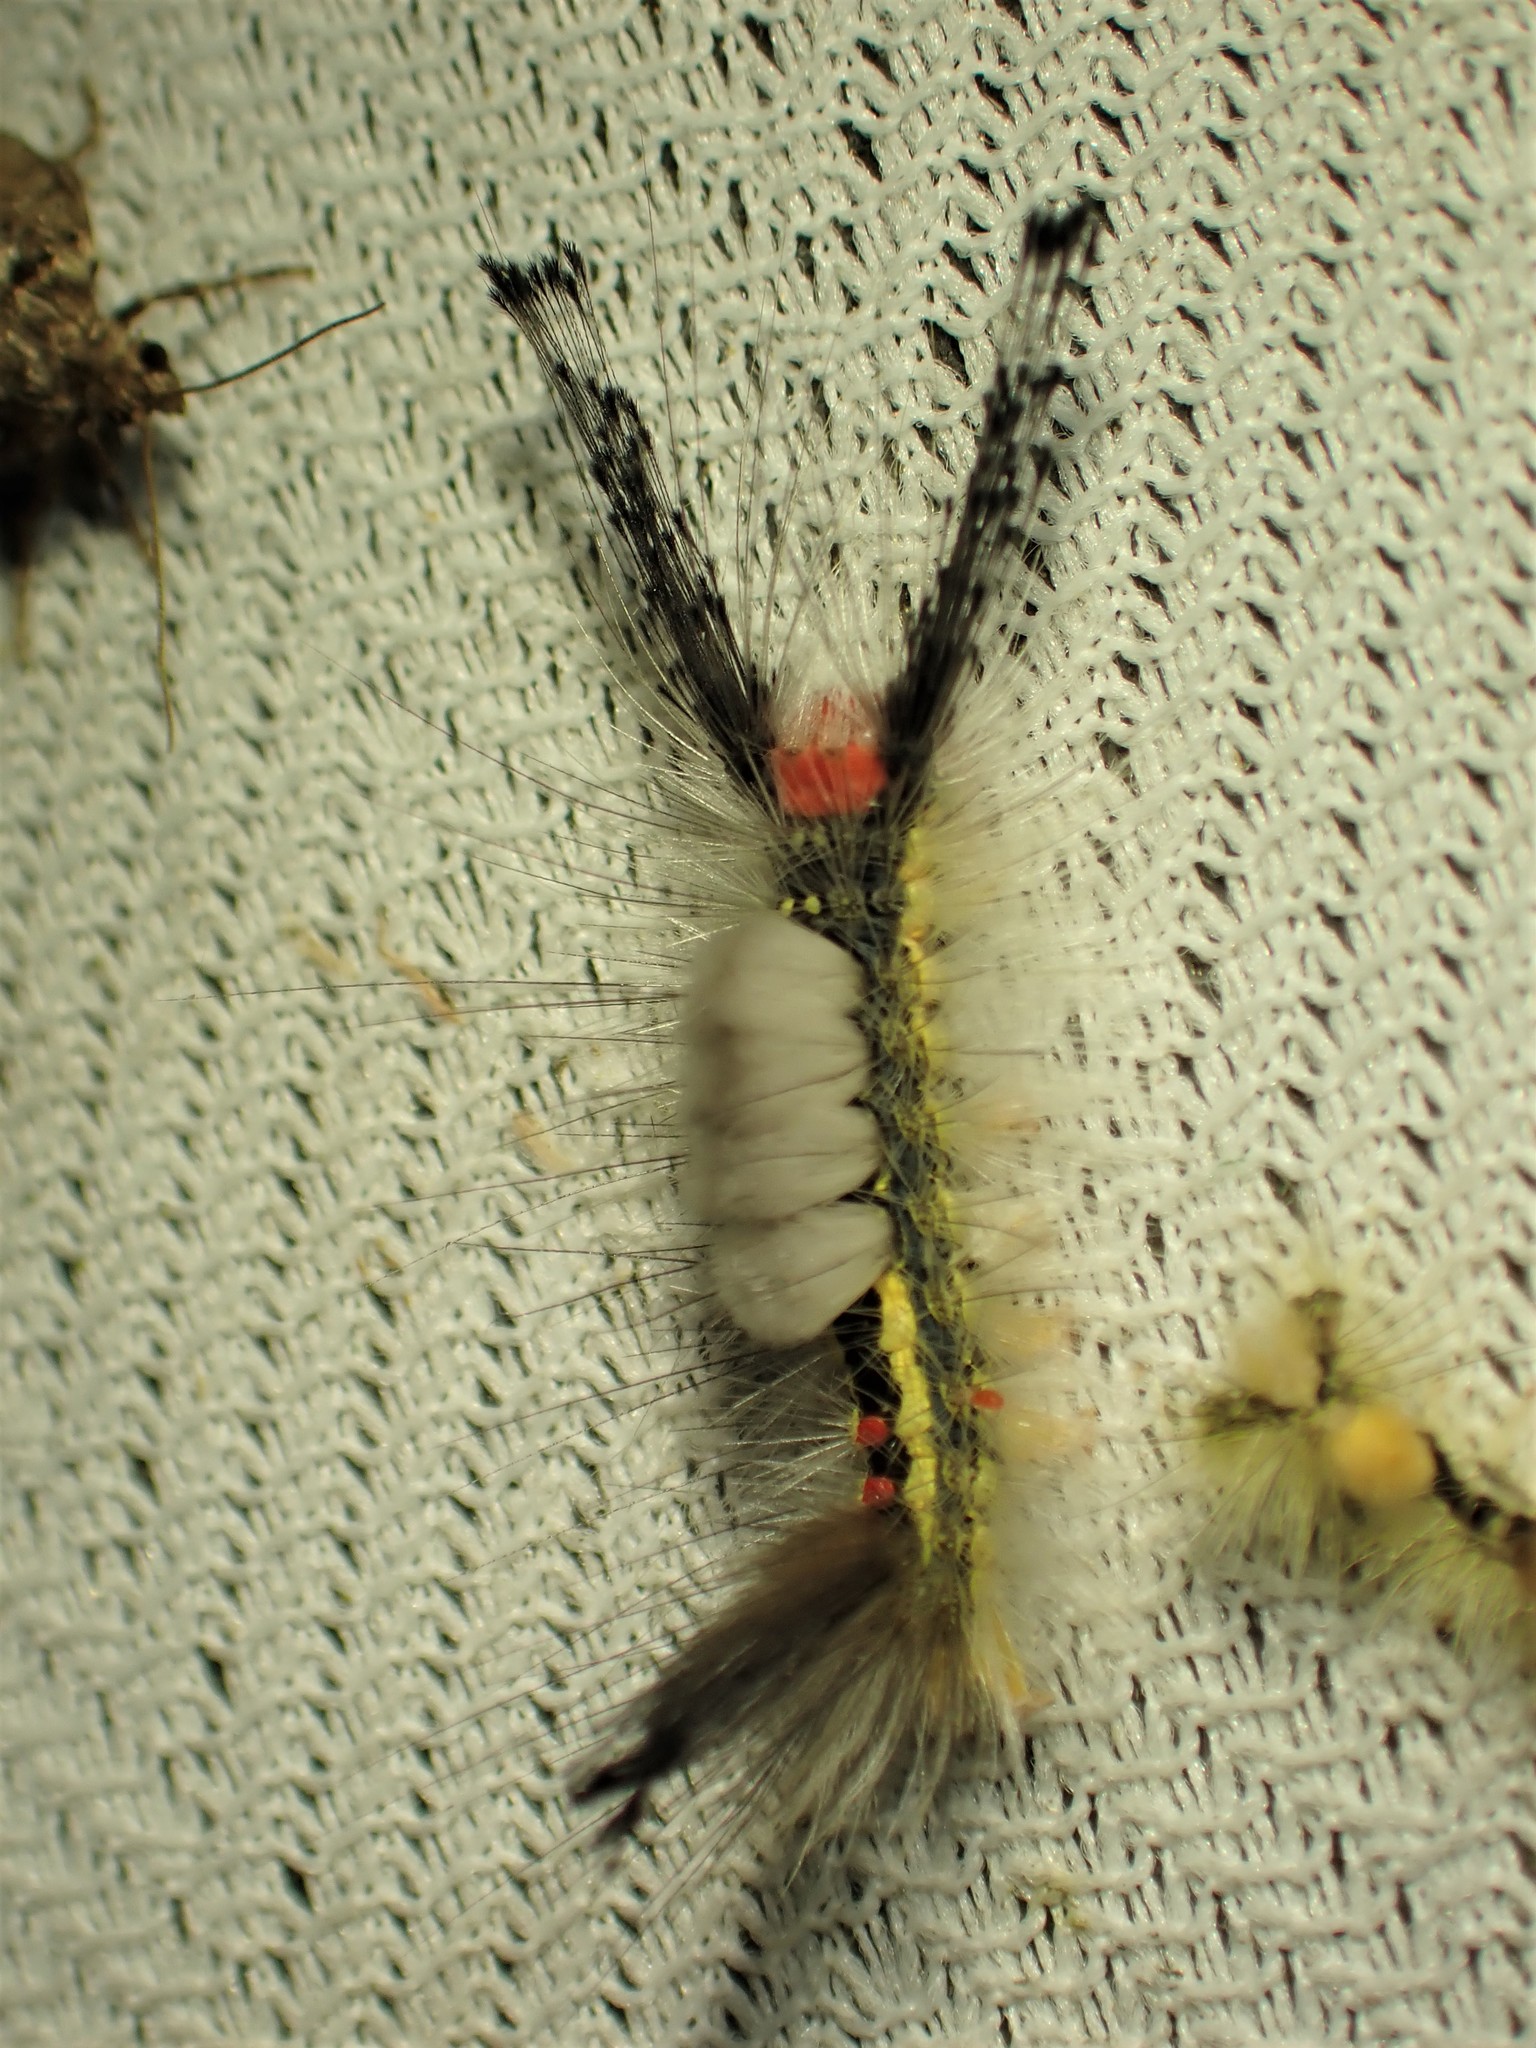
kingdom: Animalia
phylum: Arthropoda
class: Insecta
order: Lepidoptera
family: Erebidae
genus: Orgyia
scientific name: Orgyia leucostigma
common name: White-marked tussock moth
